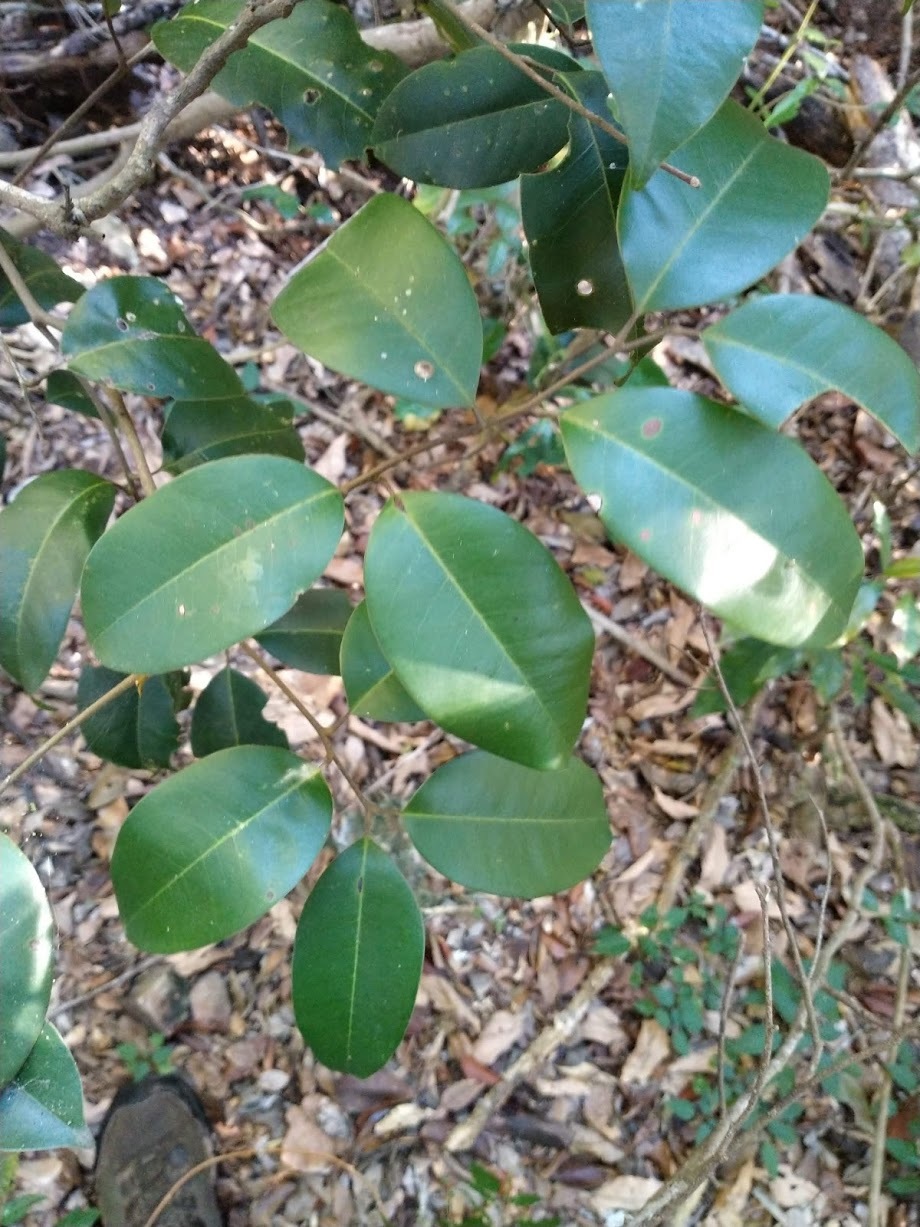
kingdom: Plantae
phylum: Tracheophyta
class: Magnoliopsida
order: Sapindales
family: Sapindaceae
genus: Mischocarpus
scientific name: Mischocarpus pyriformis
